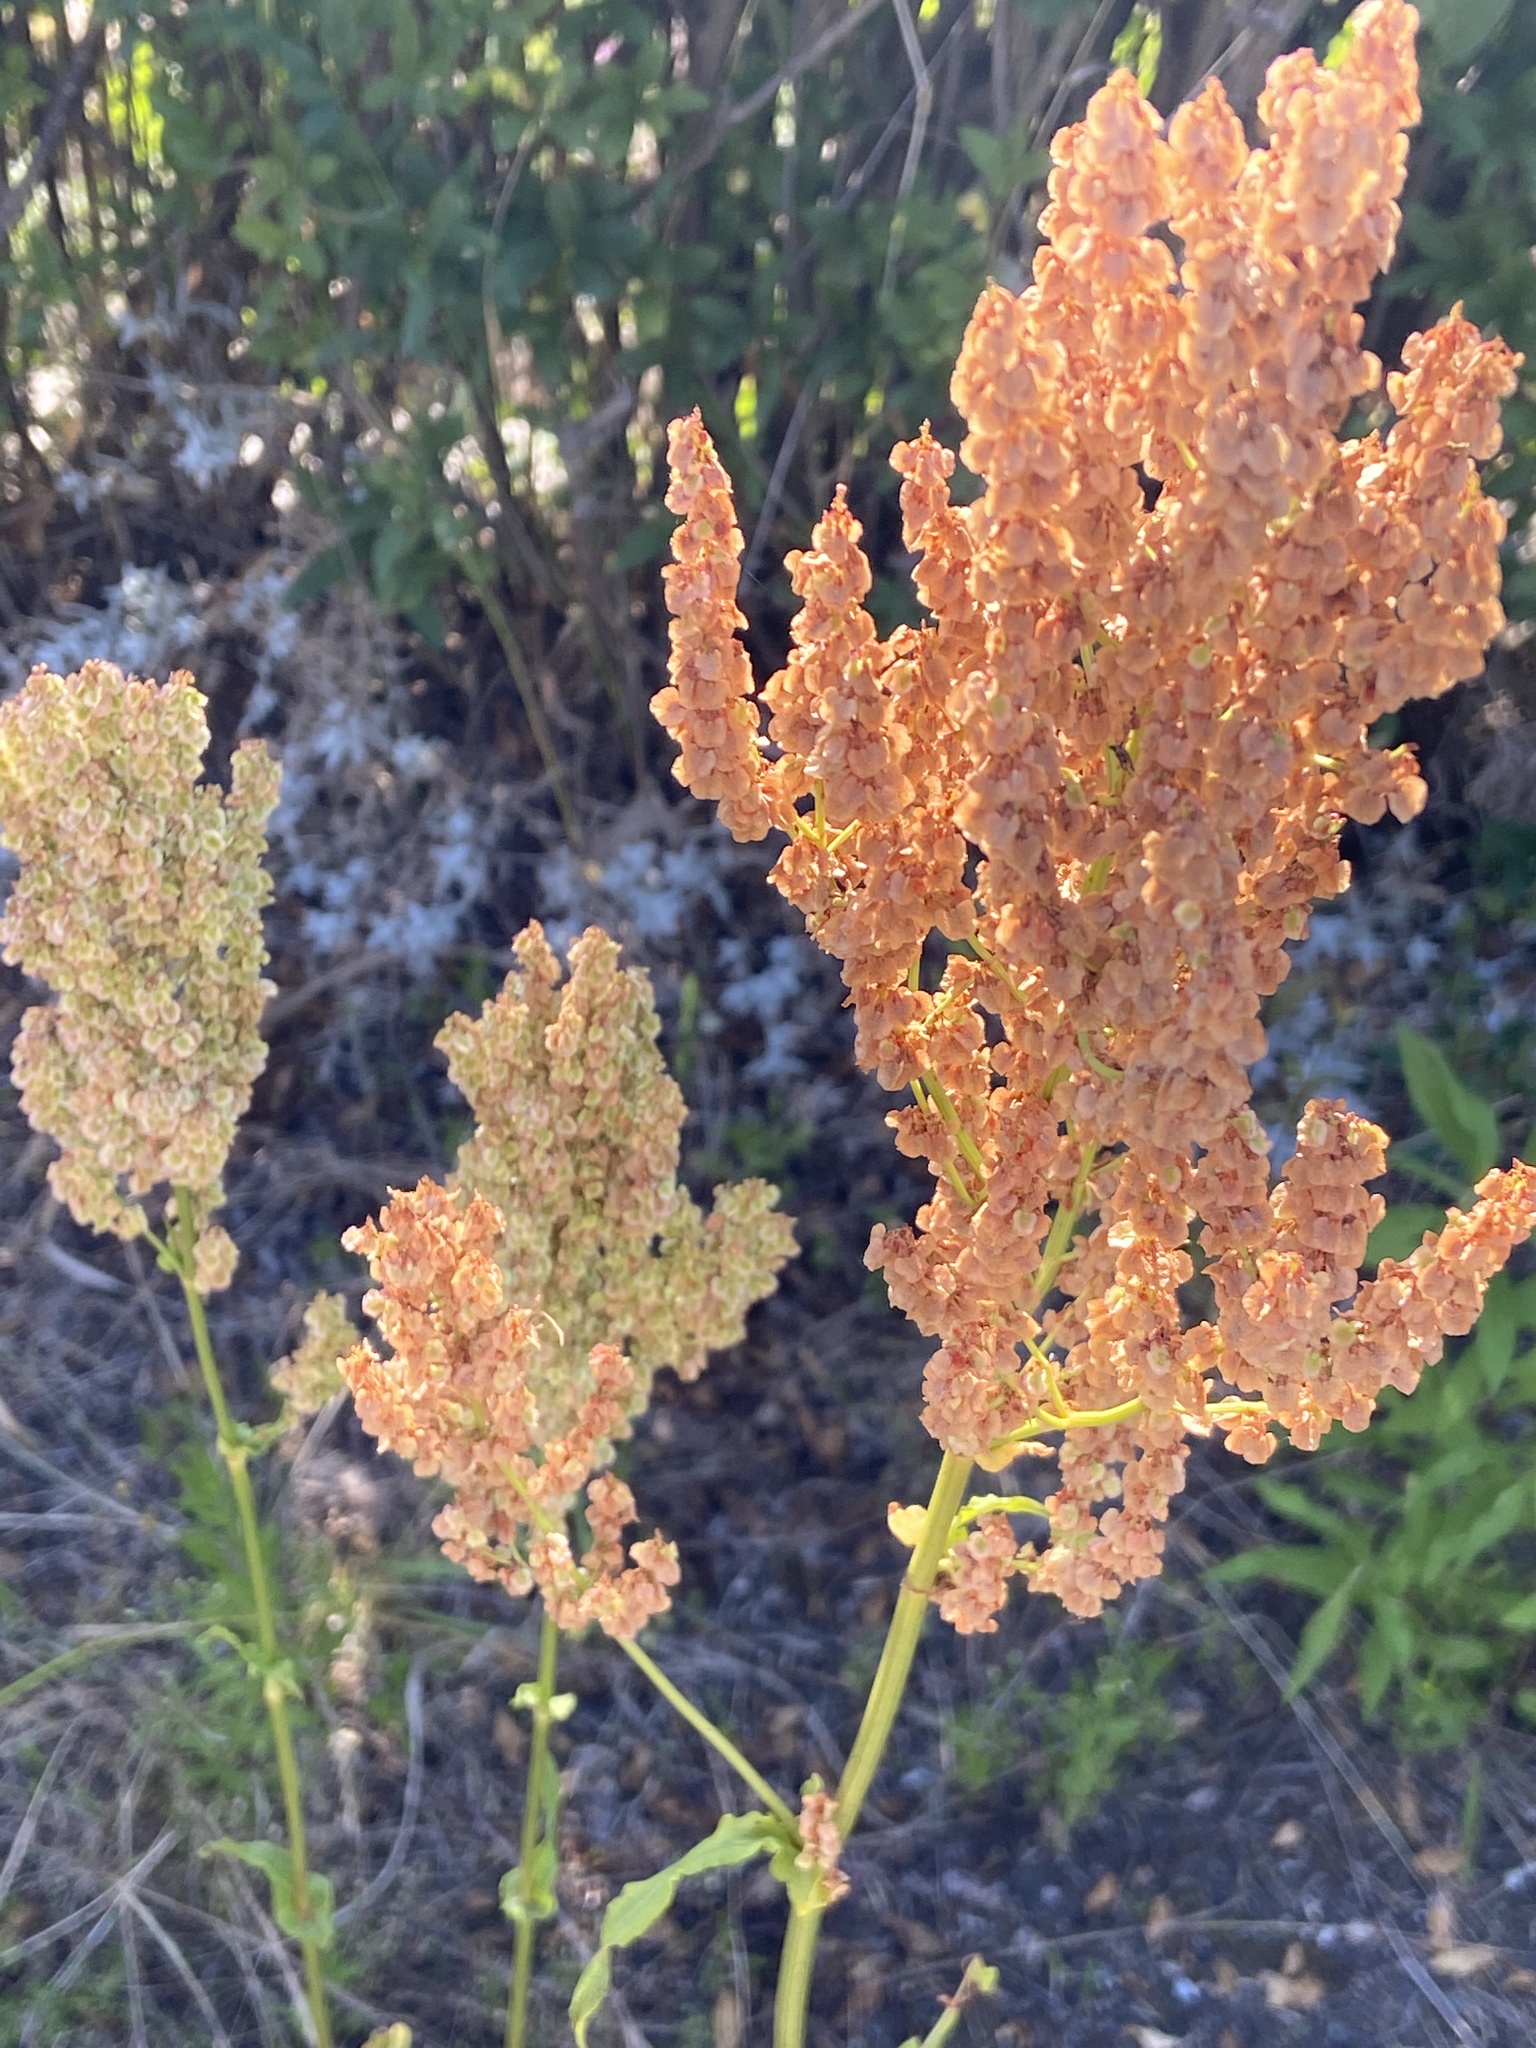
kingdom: Plantae
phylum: Tracheophyta
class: Magnoliopsida
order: Caryophyllales
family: Polygonaceae
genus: Rumex
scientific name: Rumex thyrsiflorus
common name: Garden sorrel
